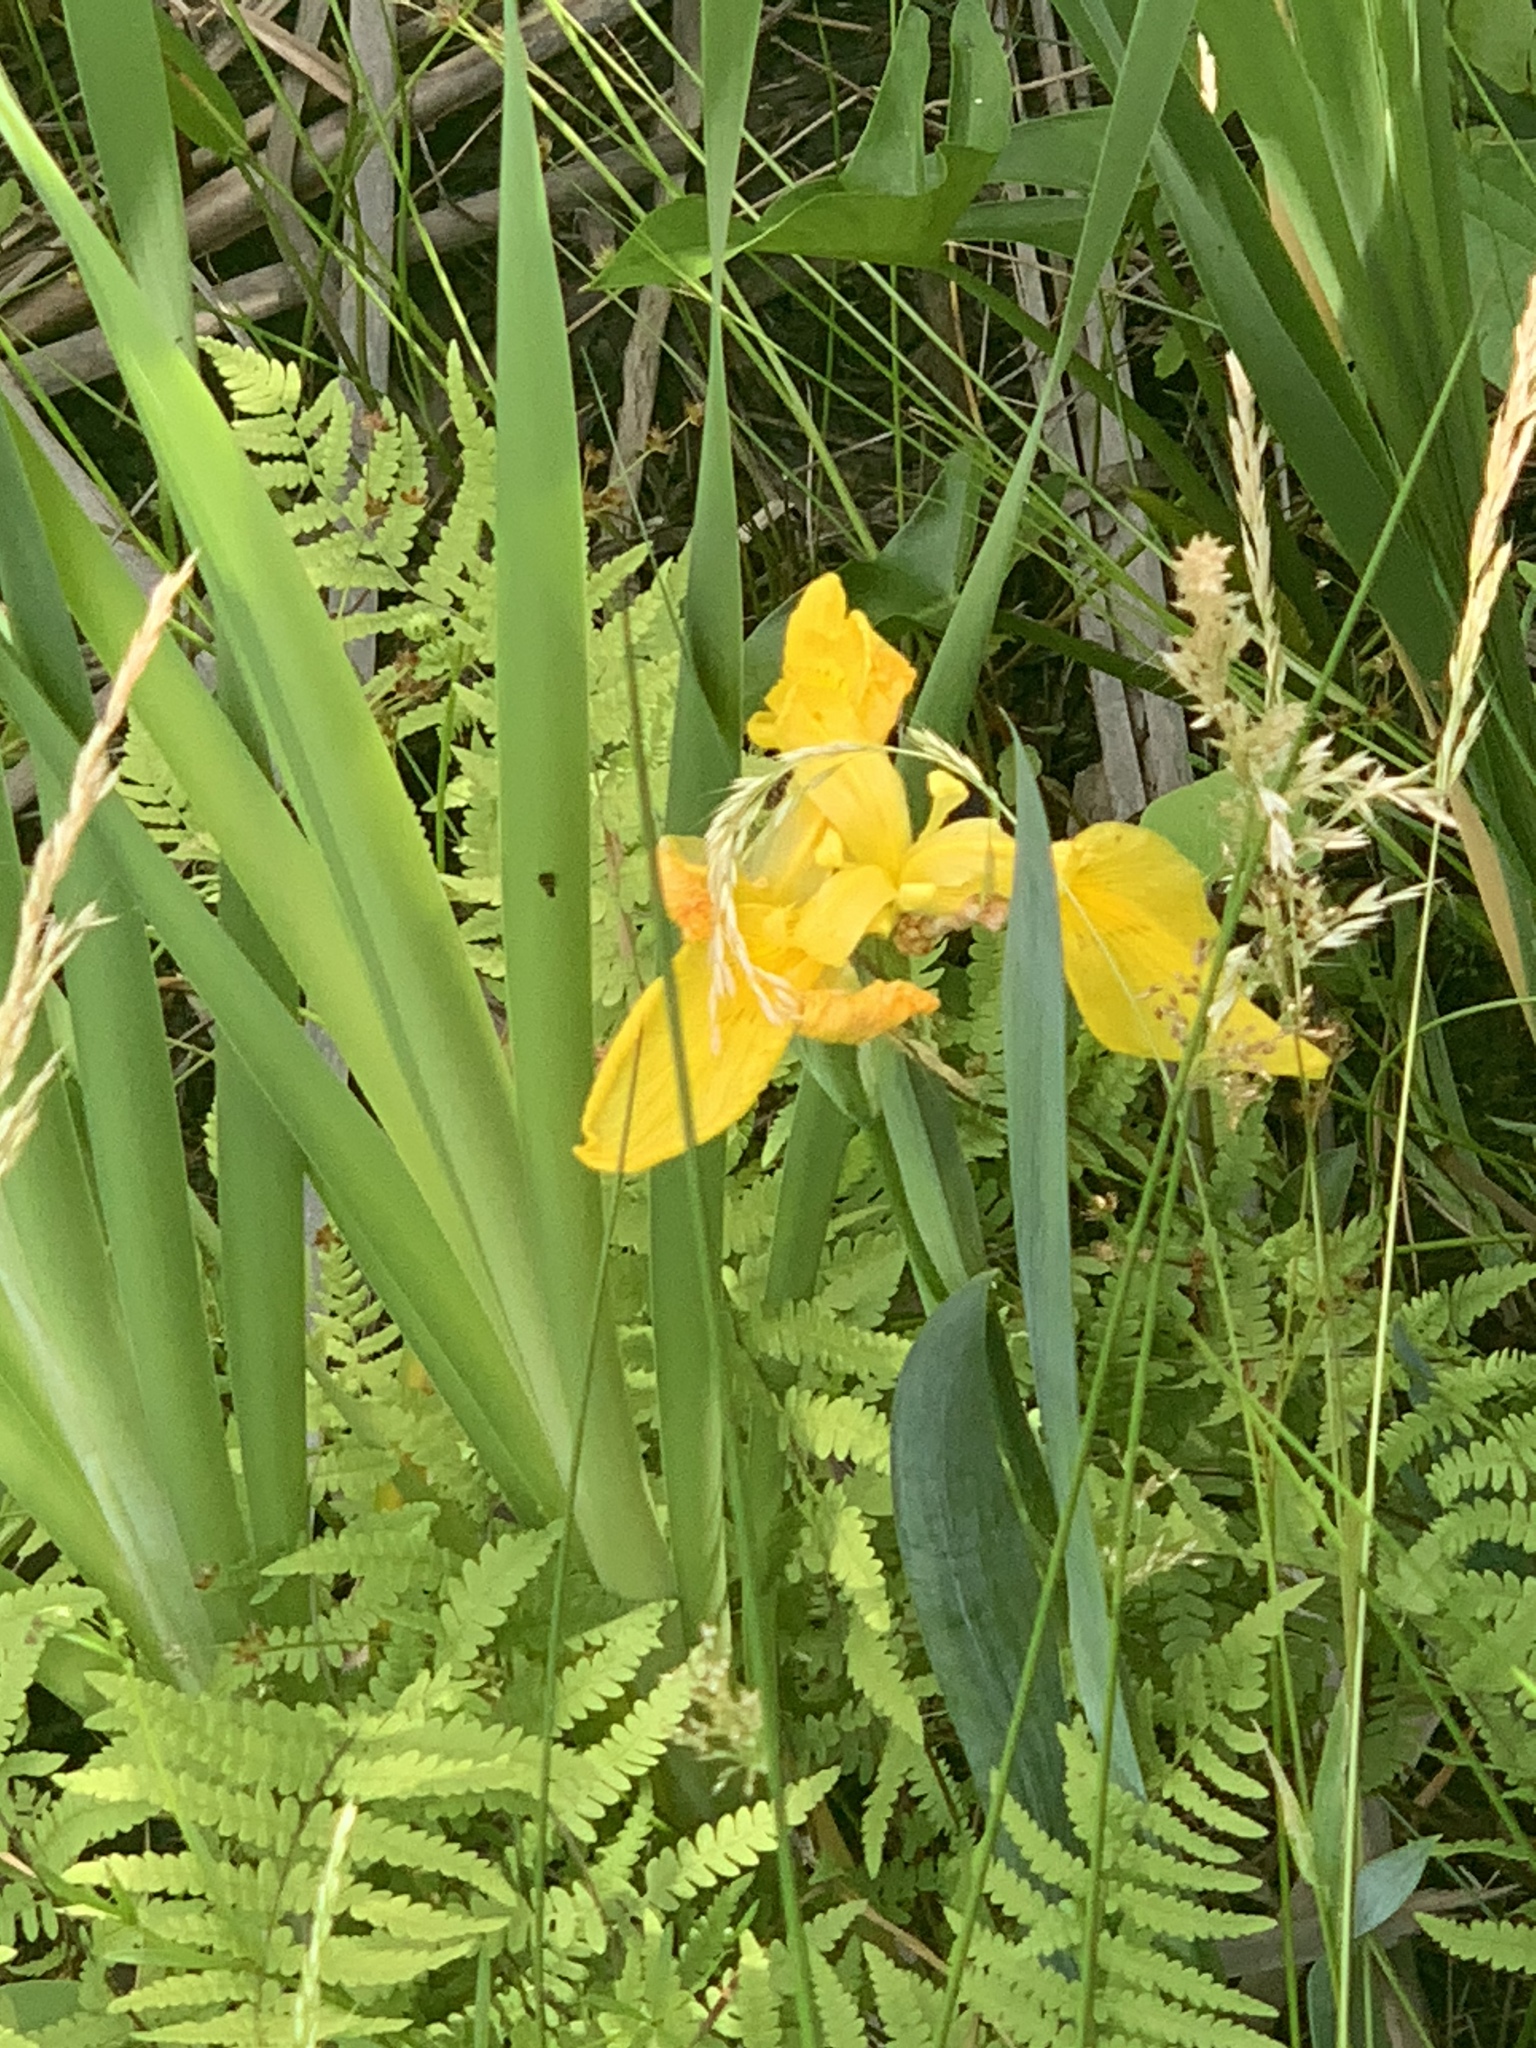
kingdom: Plantae
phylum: Tracheophyta
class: Liliopsida
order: Asparagales
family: Iridaceae
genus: Iris
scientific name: Iris pseudacorus
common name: Yellow flag
